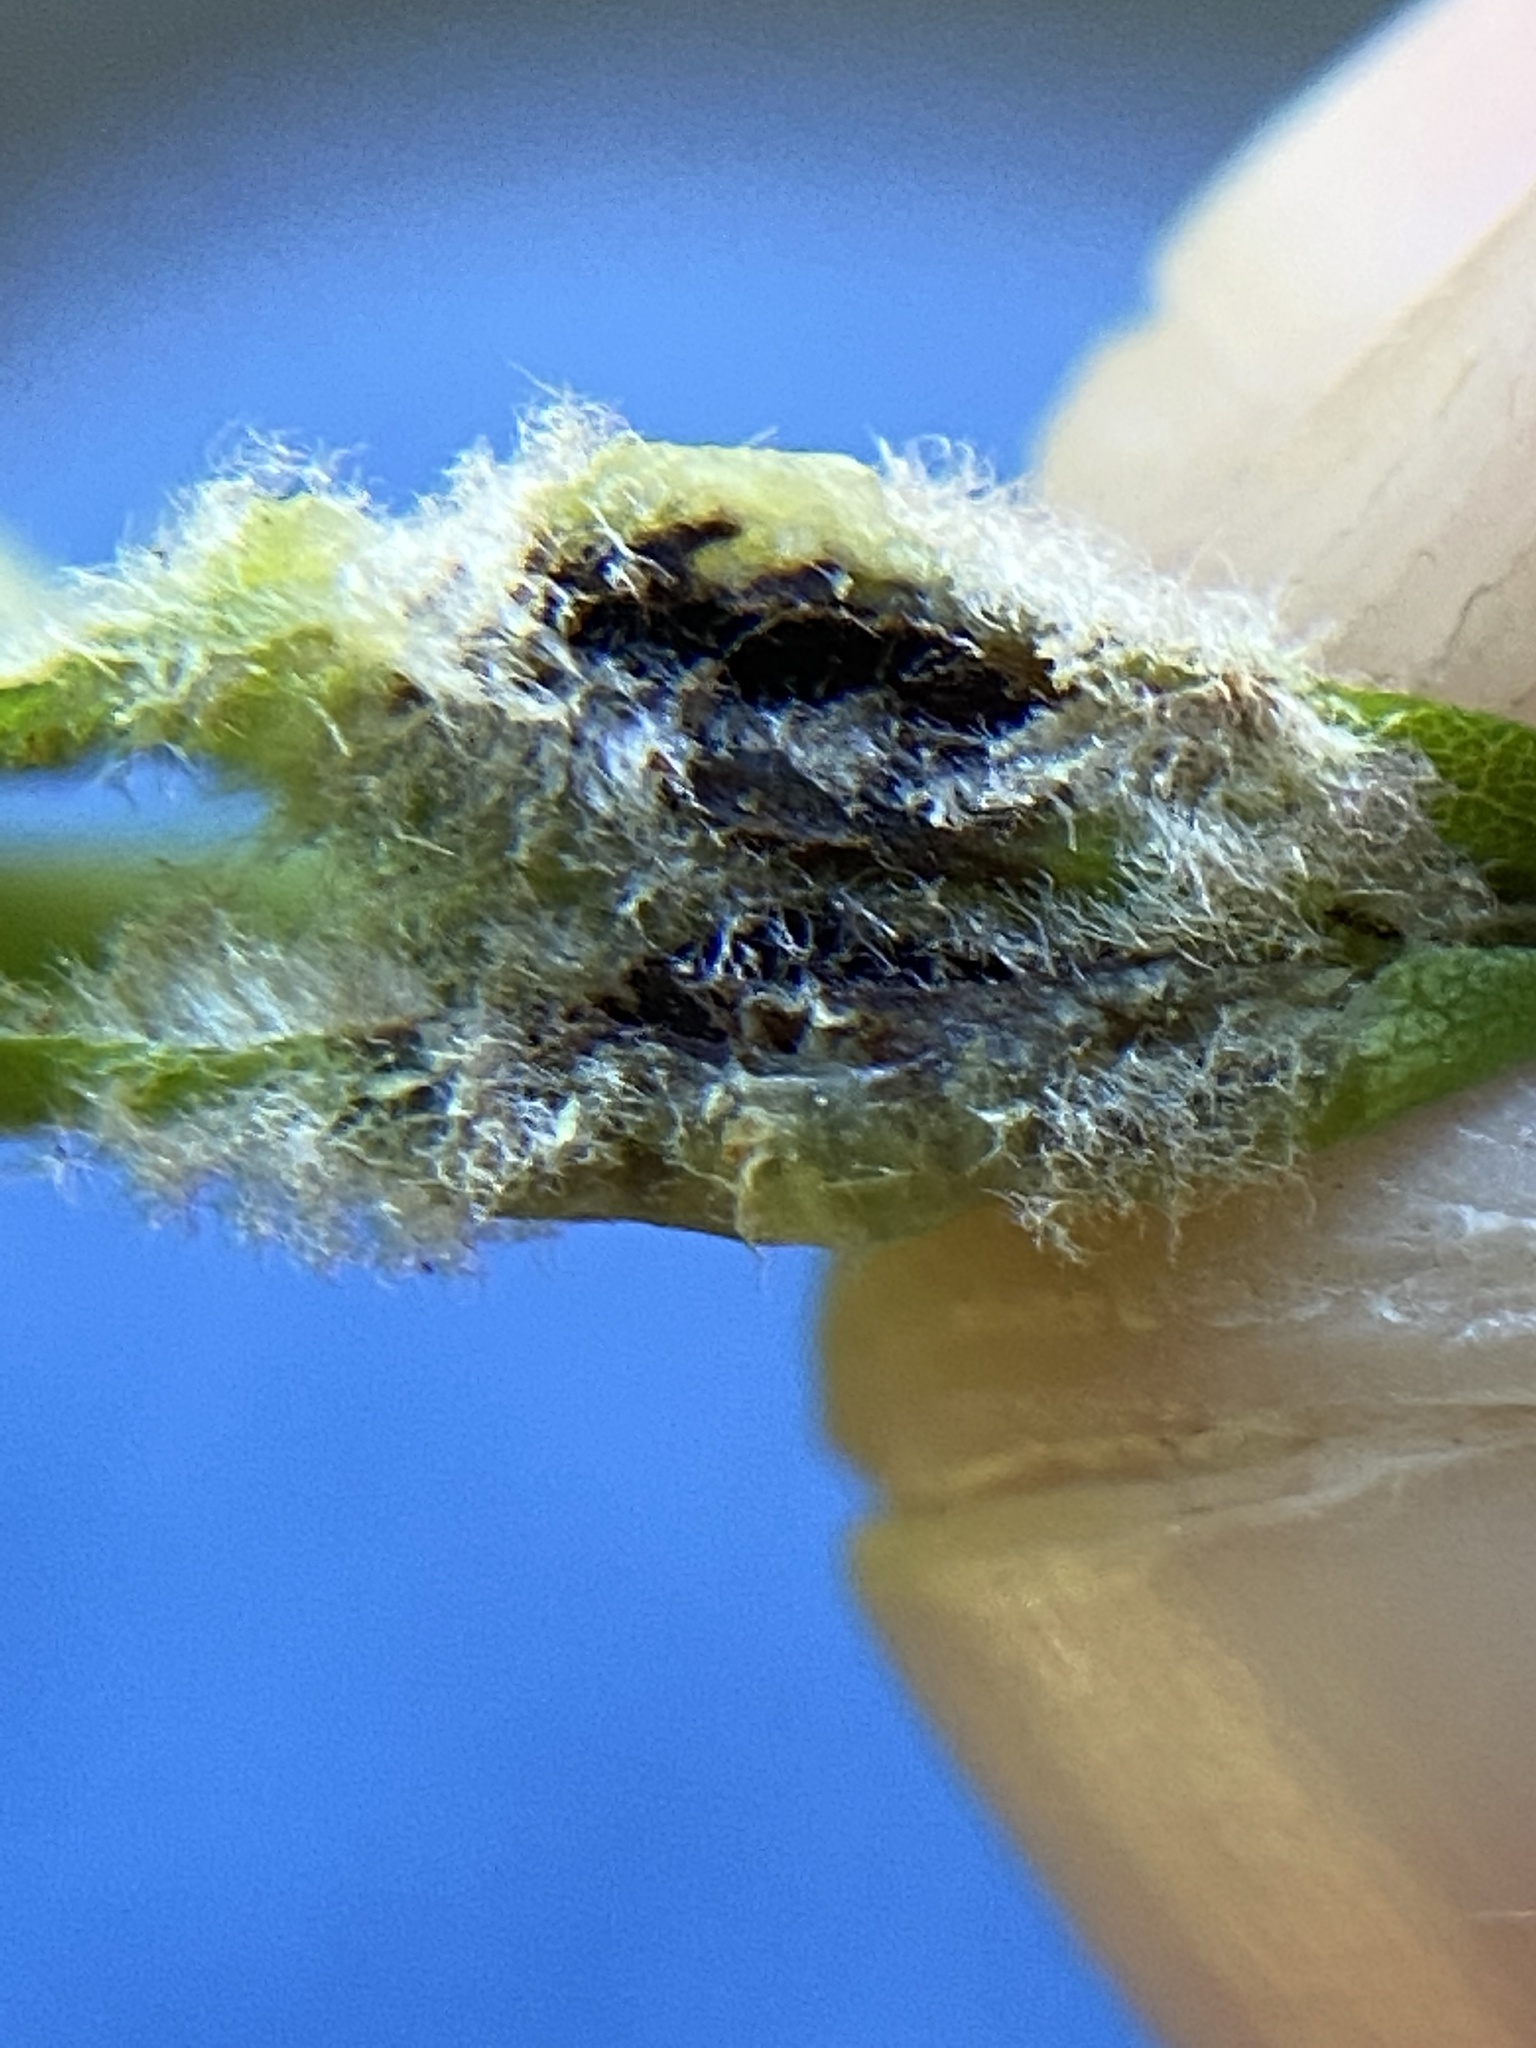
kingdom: Animalia
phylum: Arthropoda
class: Insecta
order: Diptera
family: Cecidomyiidae
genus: Macrodiplosis
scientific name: Macrodiplosis niveipila
